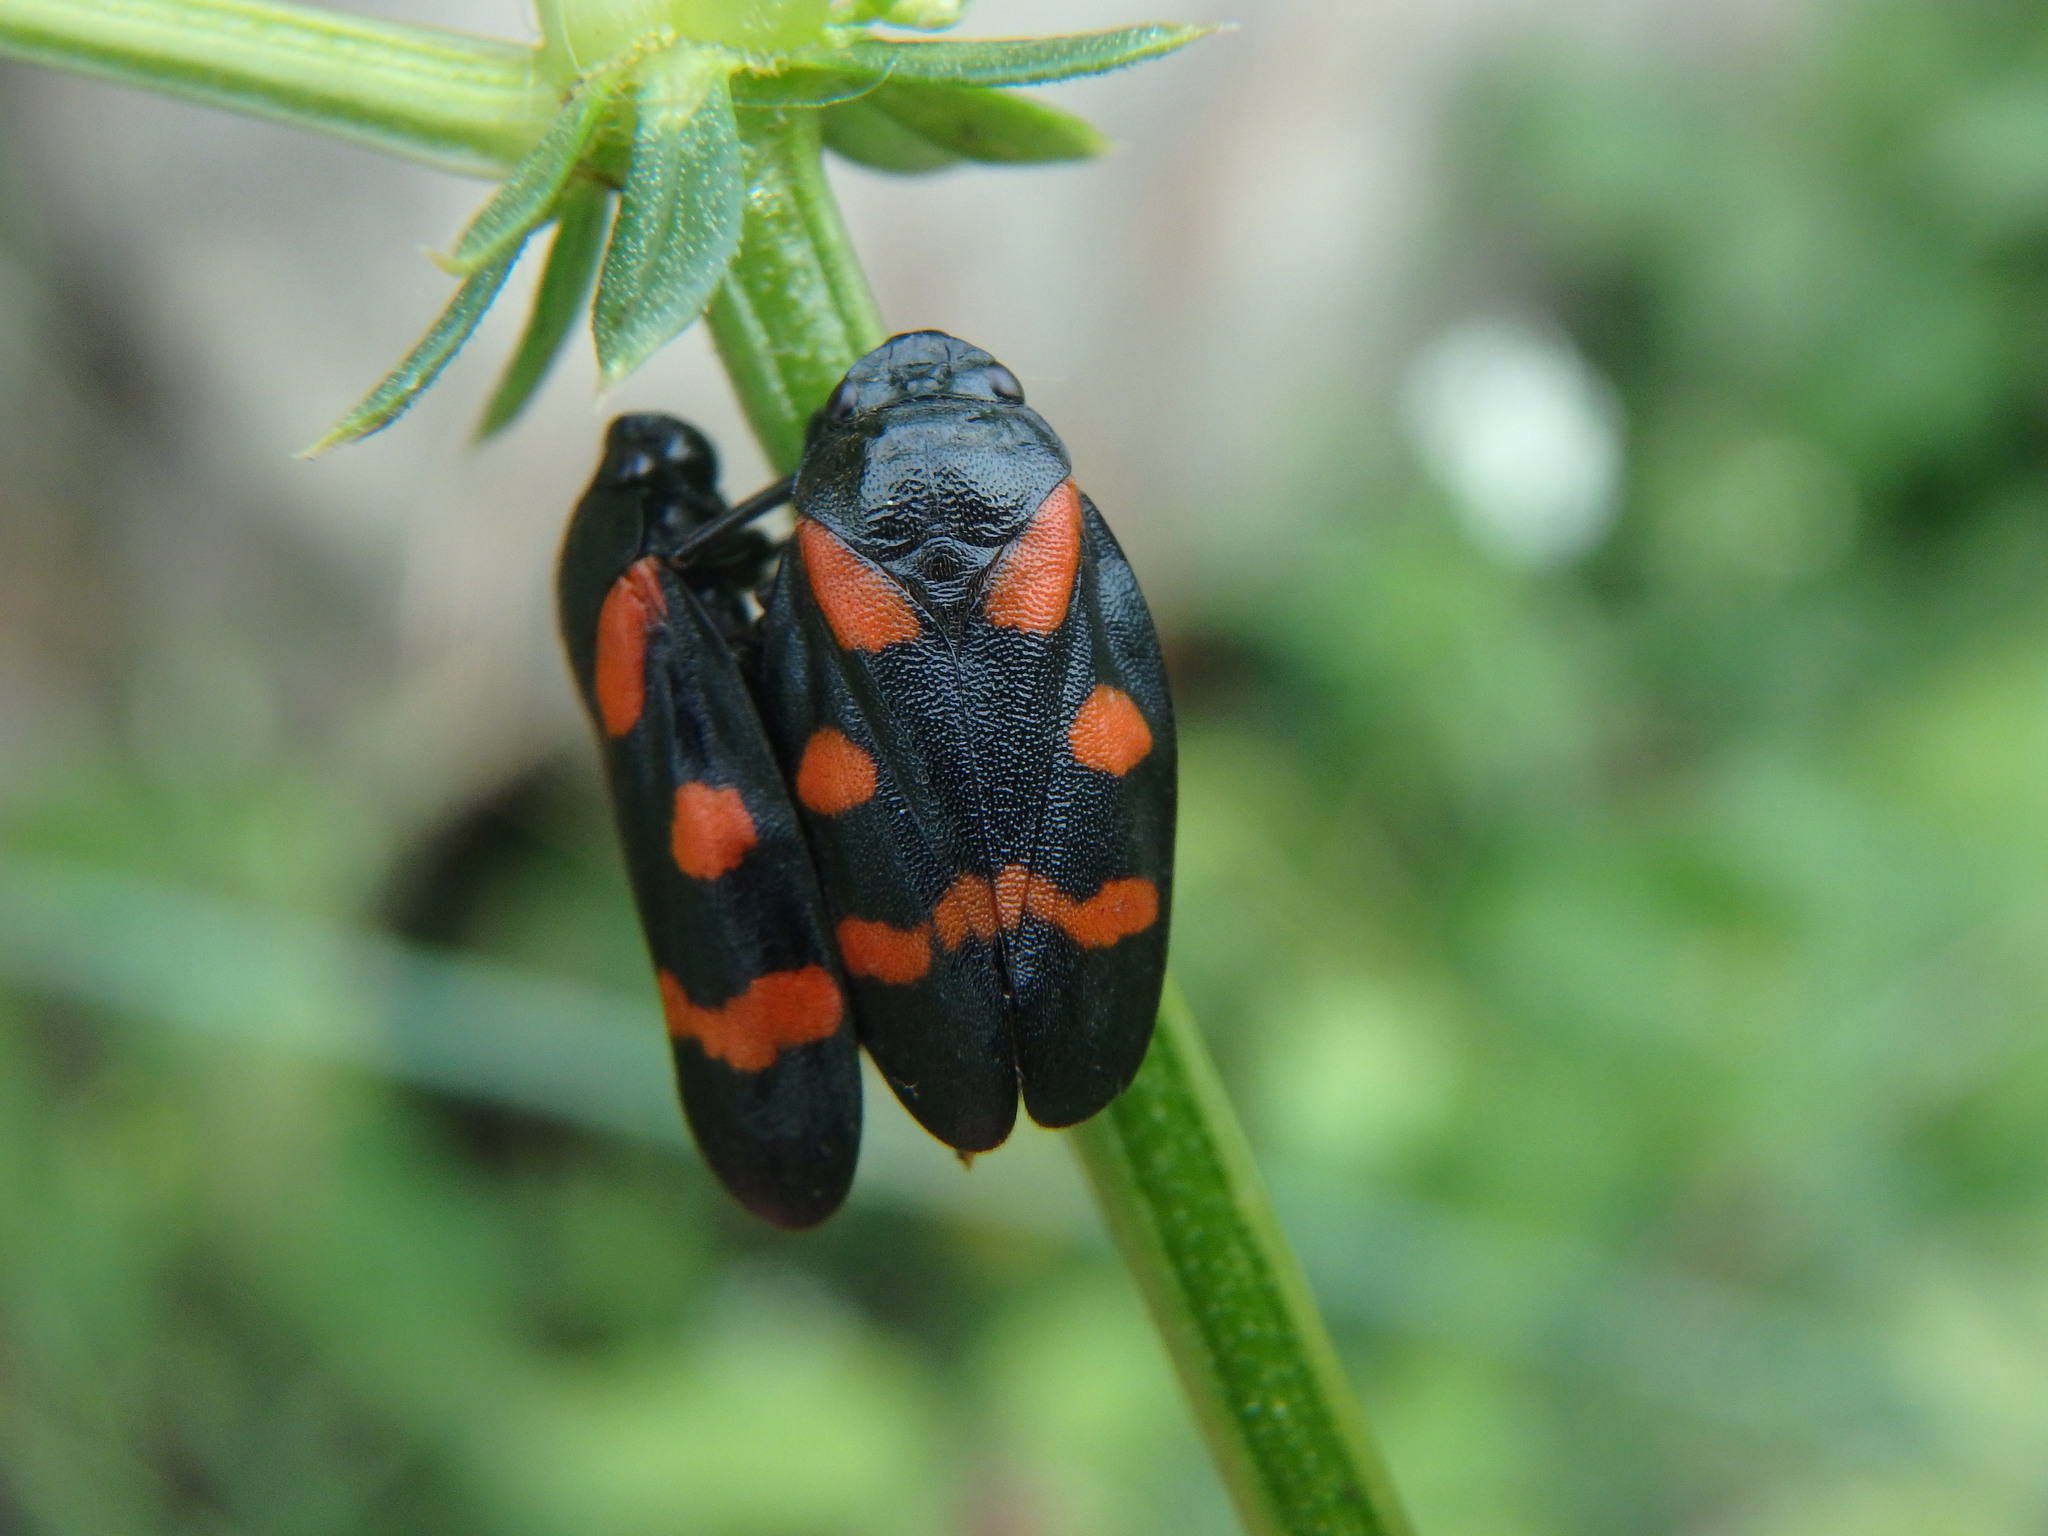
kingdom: Animalia
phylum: Arthropoda
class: Insecta
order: Hemiptera
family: Cercopidae
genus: Cercopis
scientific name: Cercopis sanguinolenta
